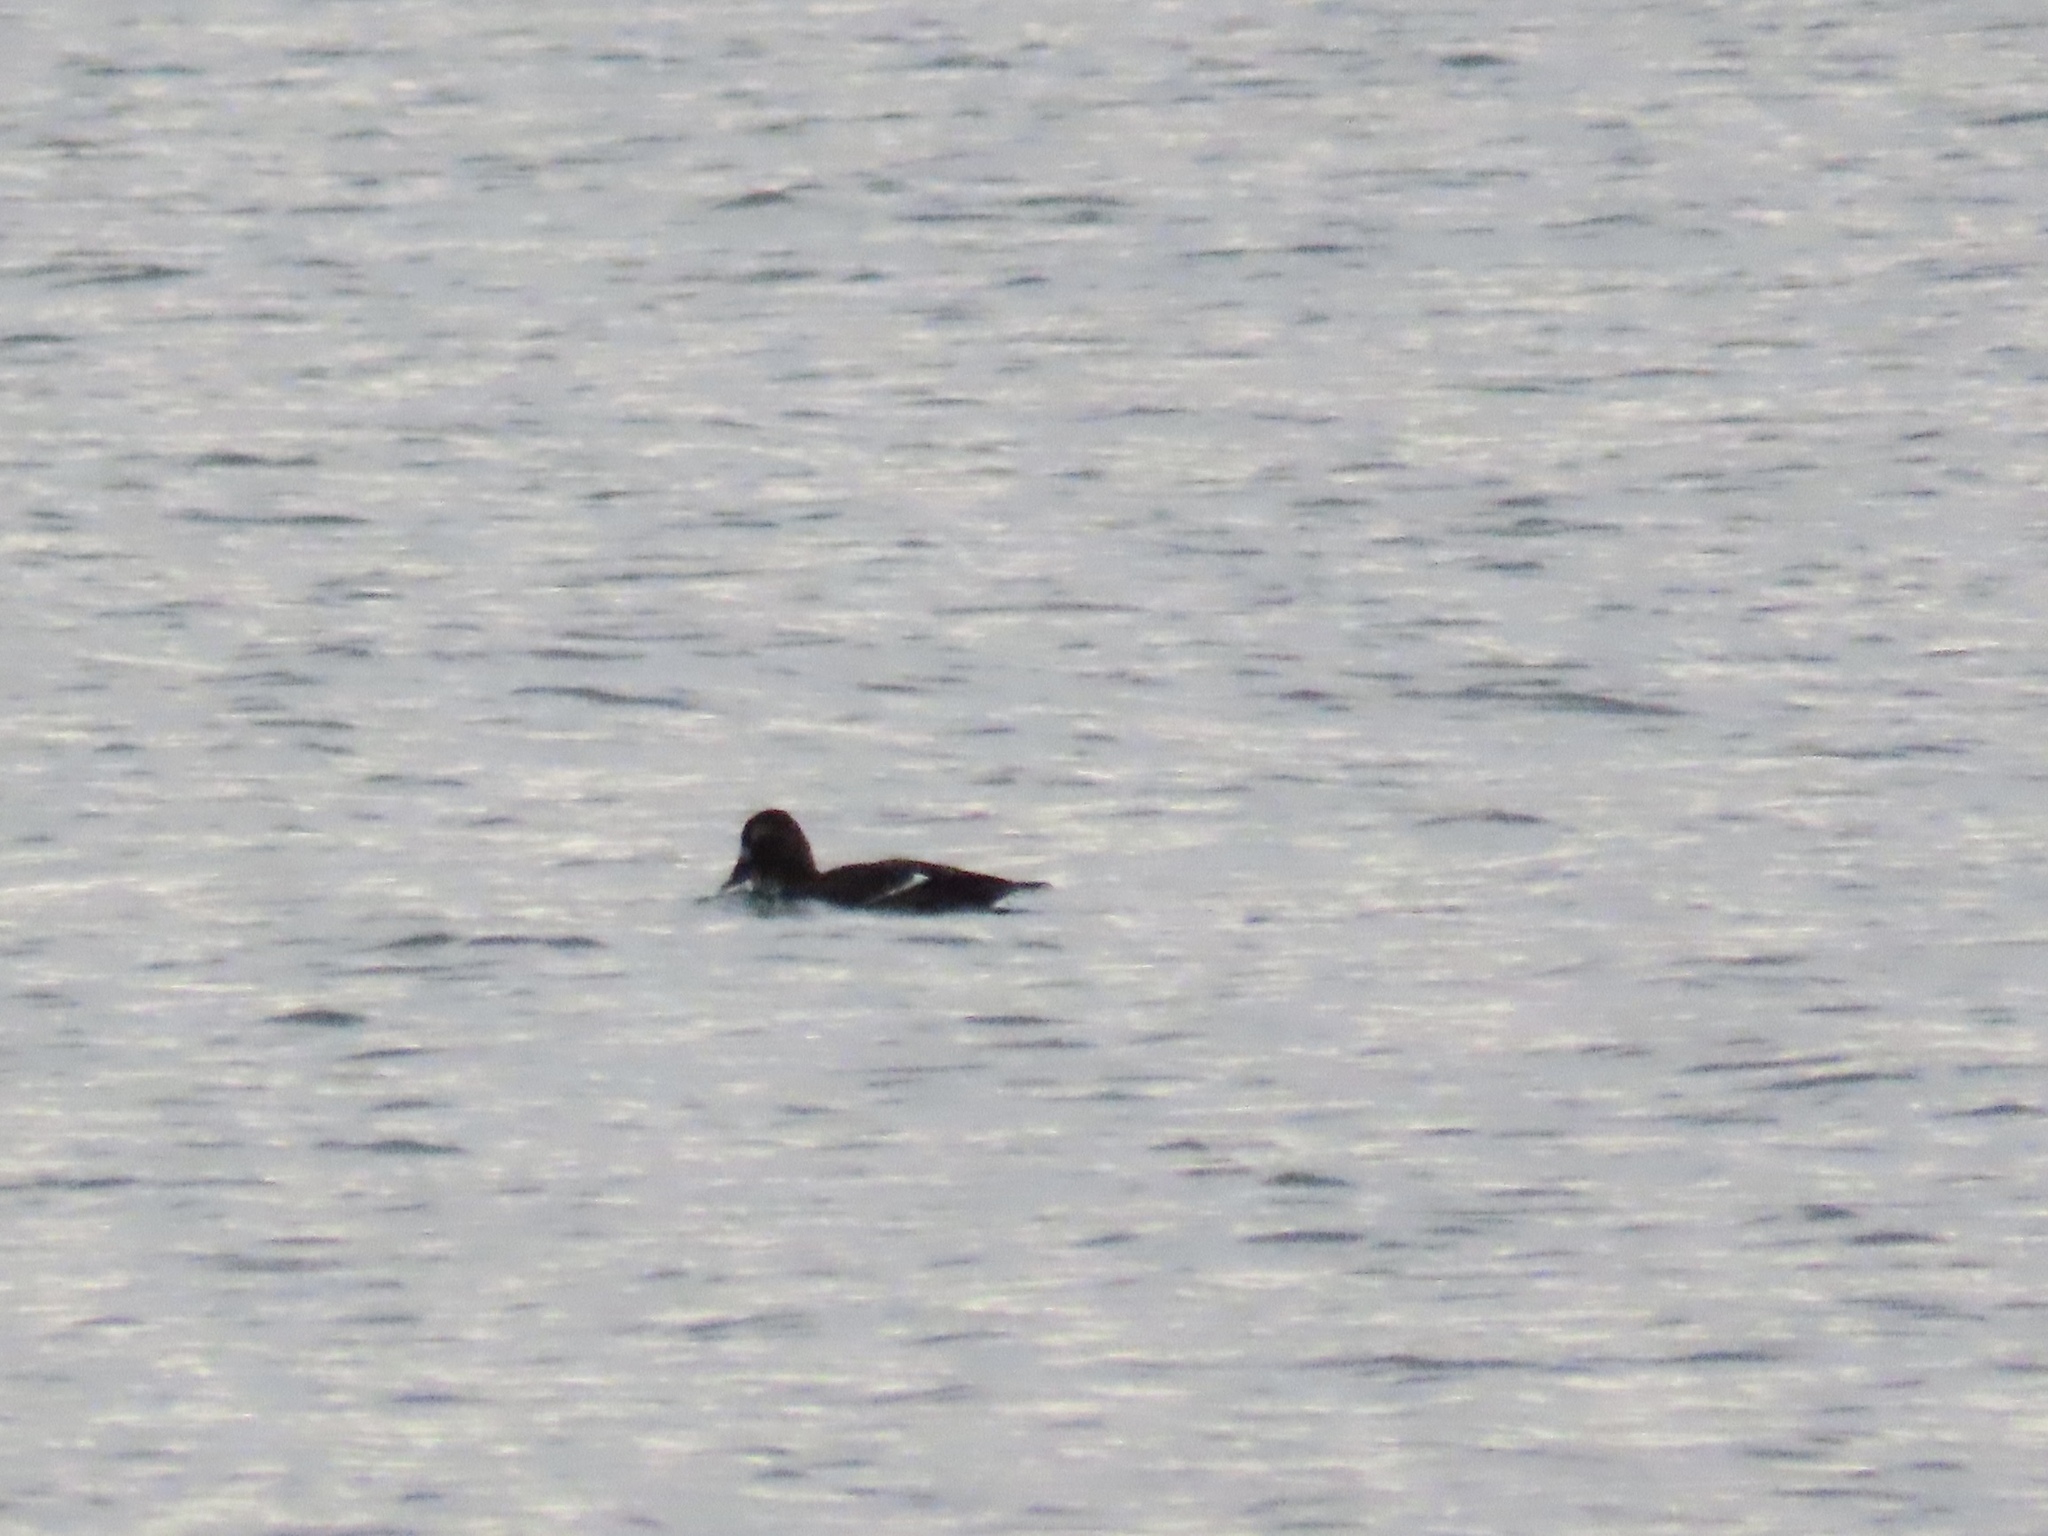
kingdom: Animalia
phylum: Chordata
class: Aves
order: Anseriformes
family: Anatidae
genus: Melanitta
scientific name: Melanitta deglandi
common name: White-winged scoter
